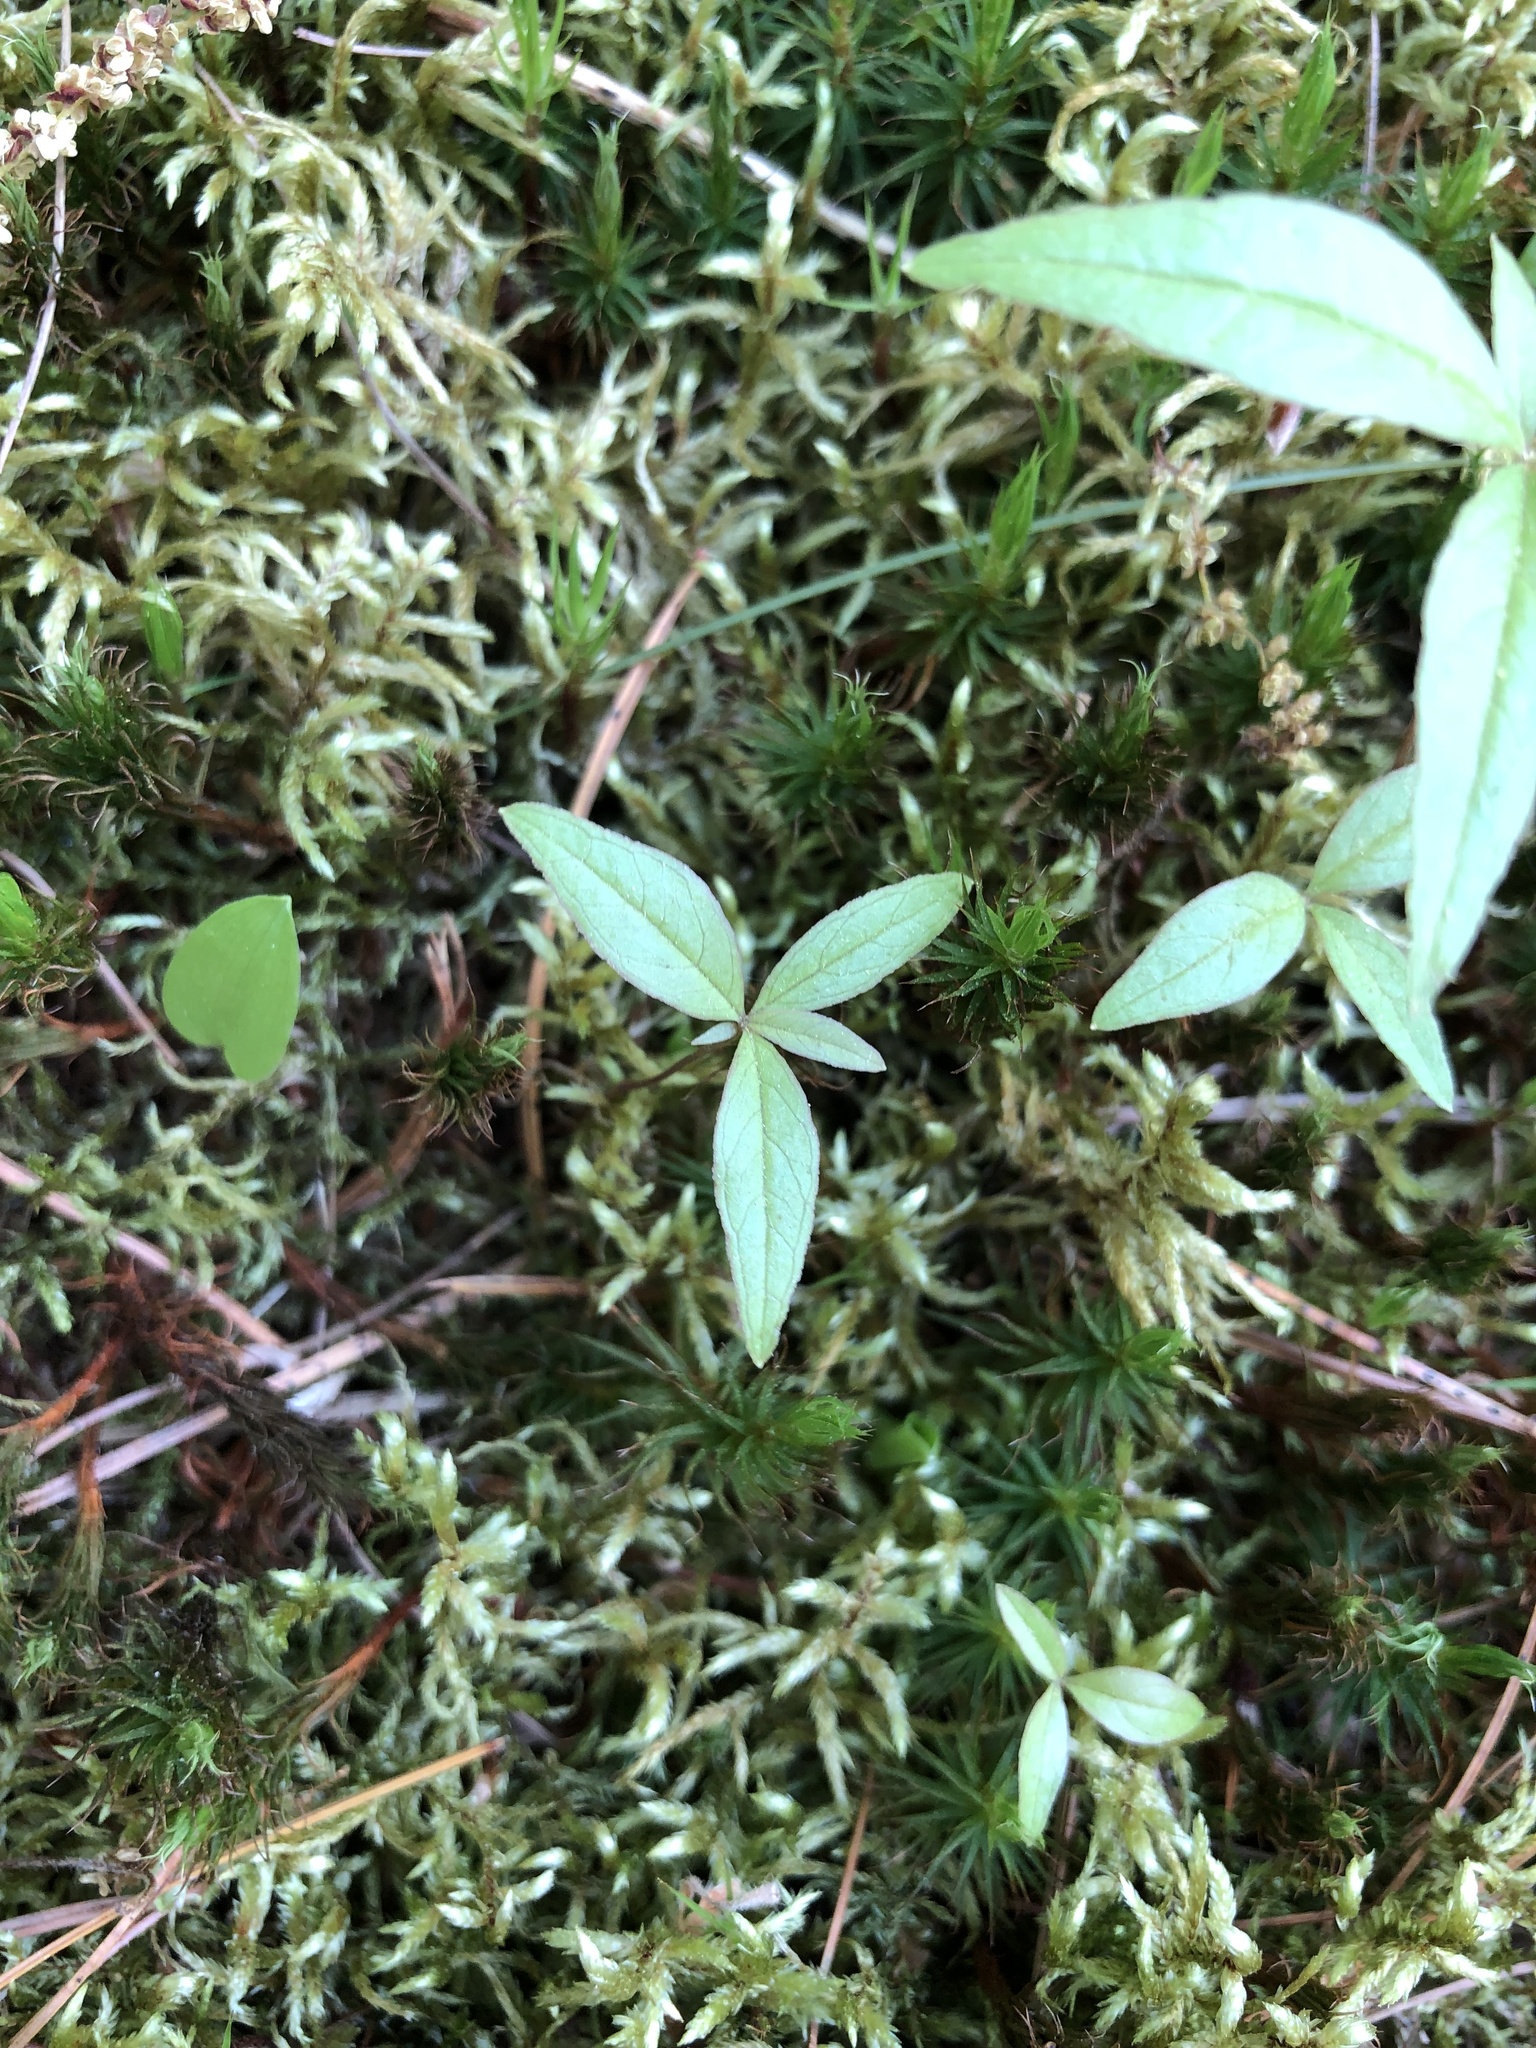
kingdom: Plantae
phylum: Tracheophyta
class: Magnoliopsida
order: Ericales
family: Primulaceae
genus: Lysimachia
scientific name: Lysimachia borealis
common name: American starflower
